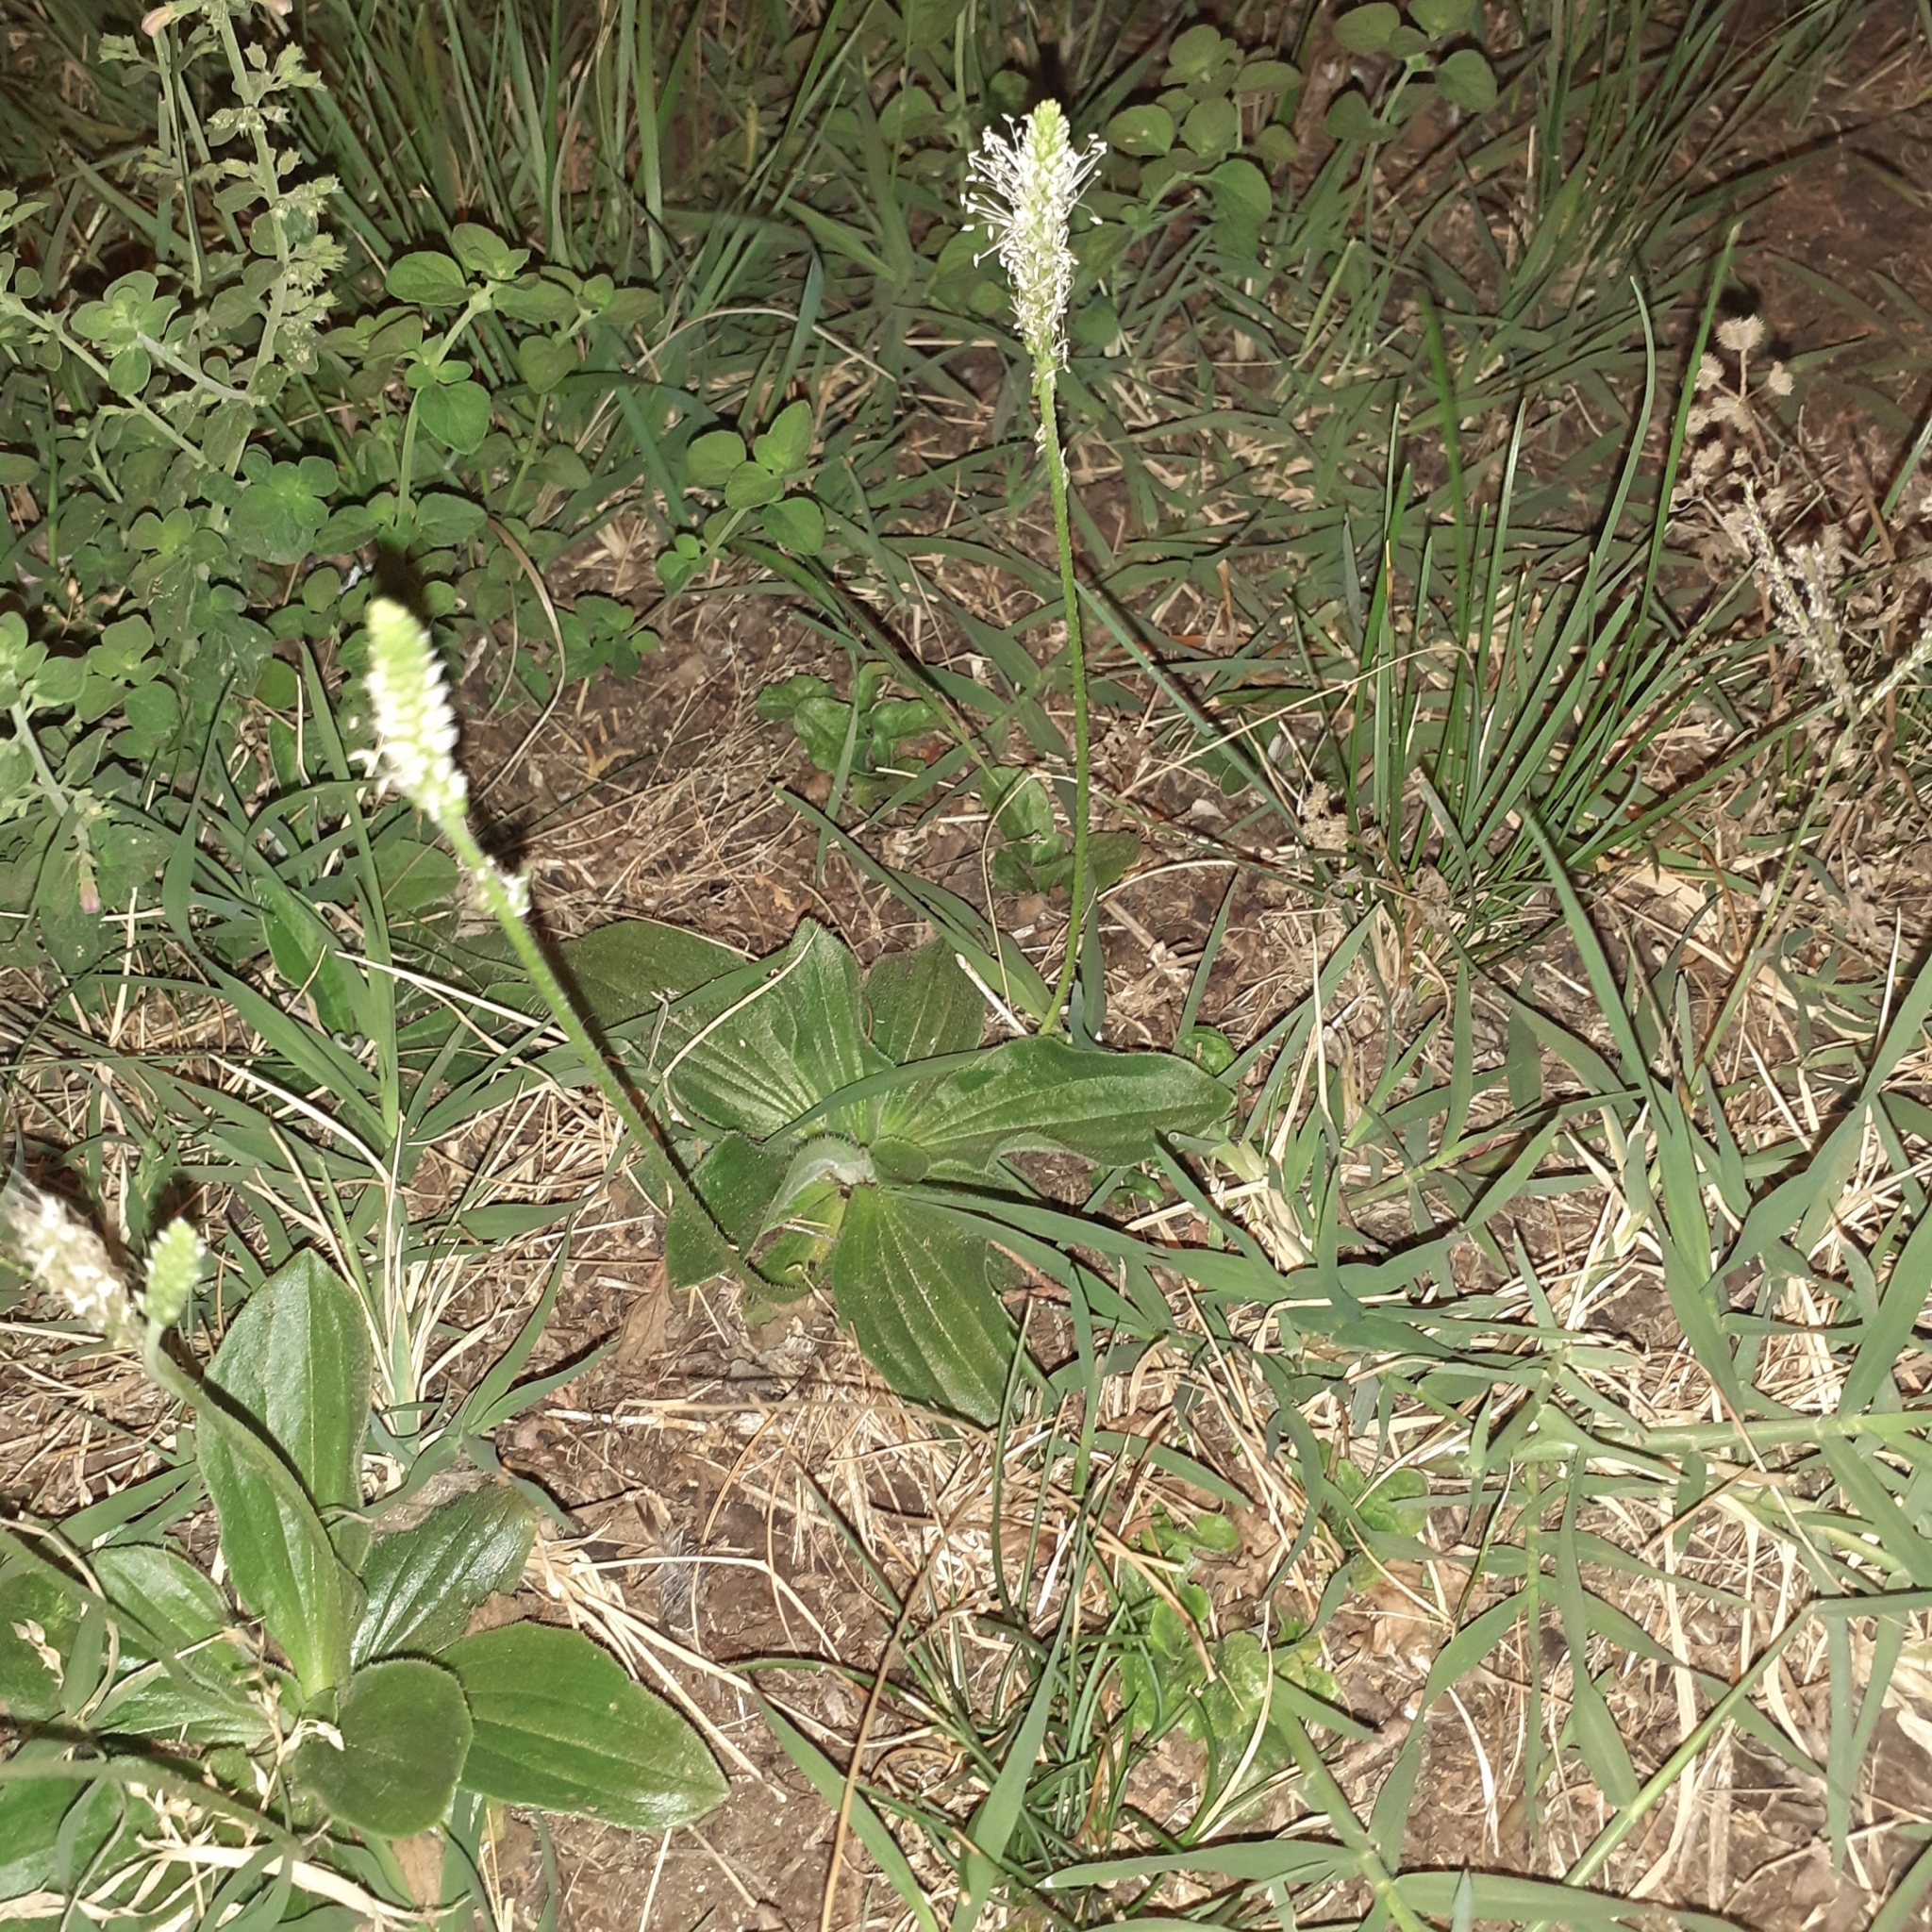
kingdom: Plantae
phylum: Tracheophyta
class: Magnoliopsida
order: Lamiales
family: Plantaginaceae
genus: Plantago
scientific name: Plantago media
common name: Hoary plantain
